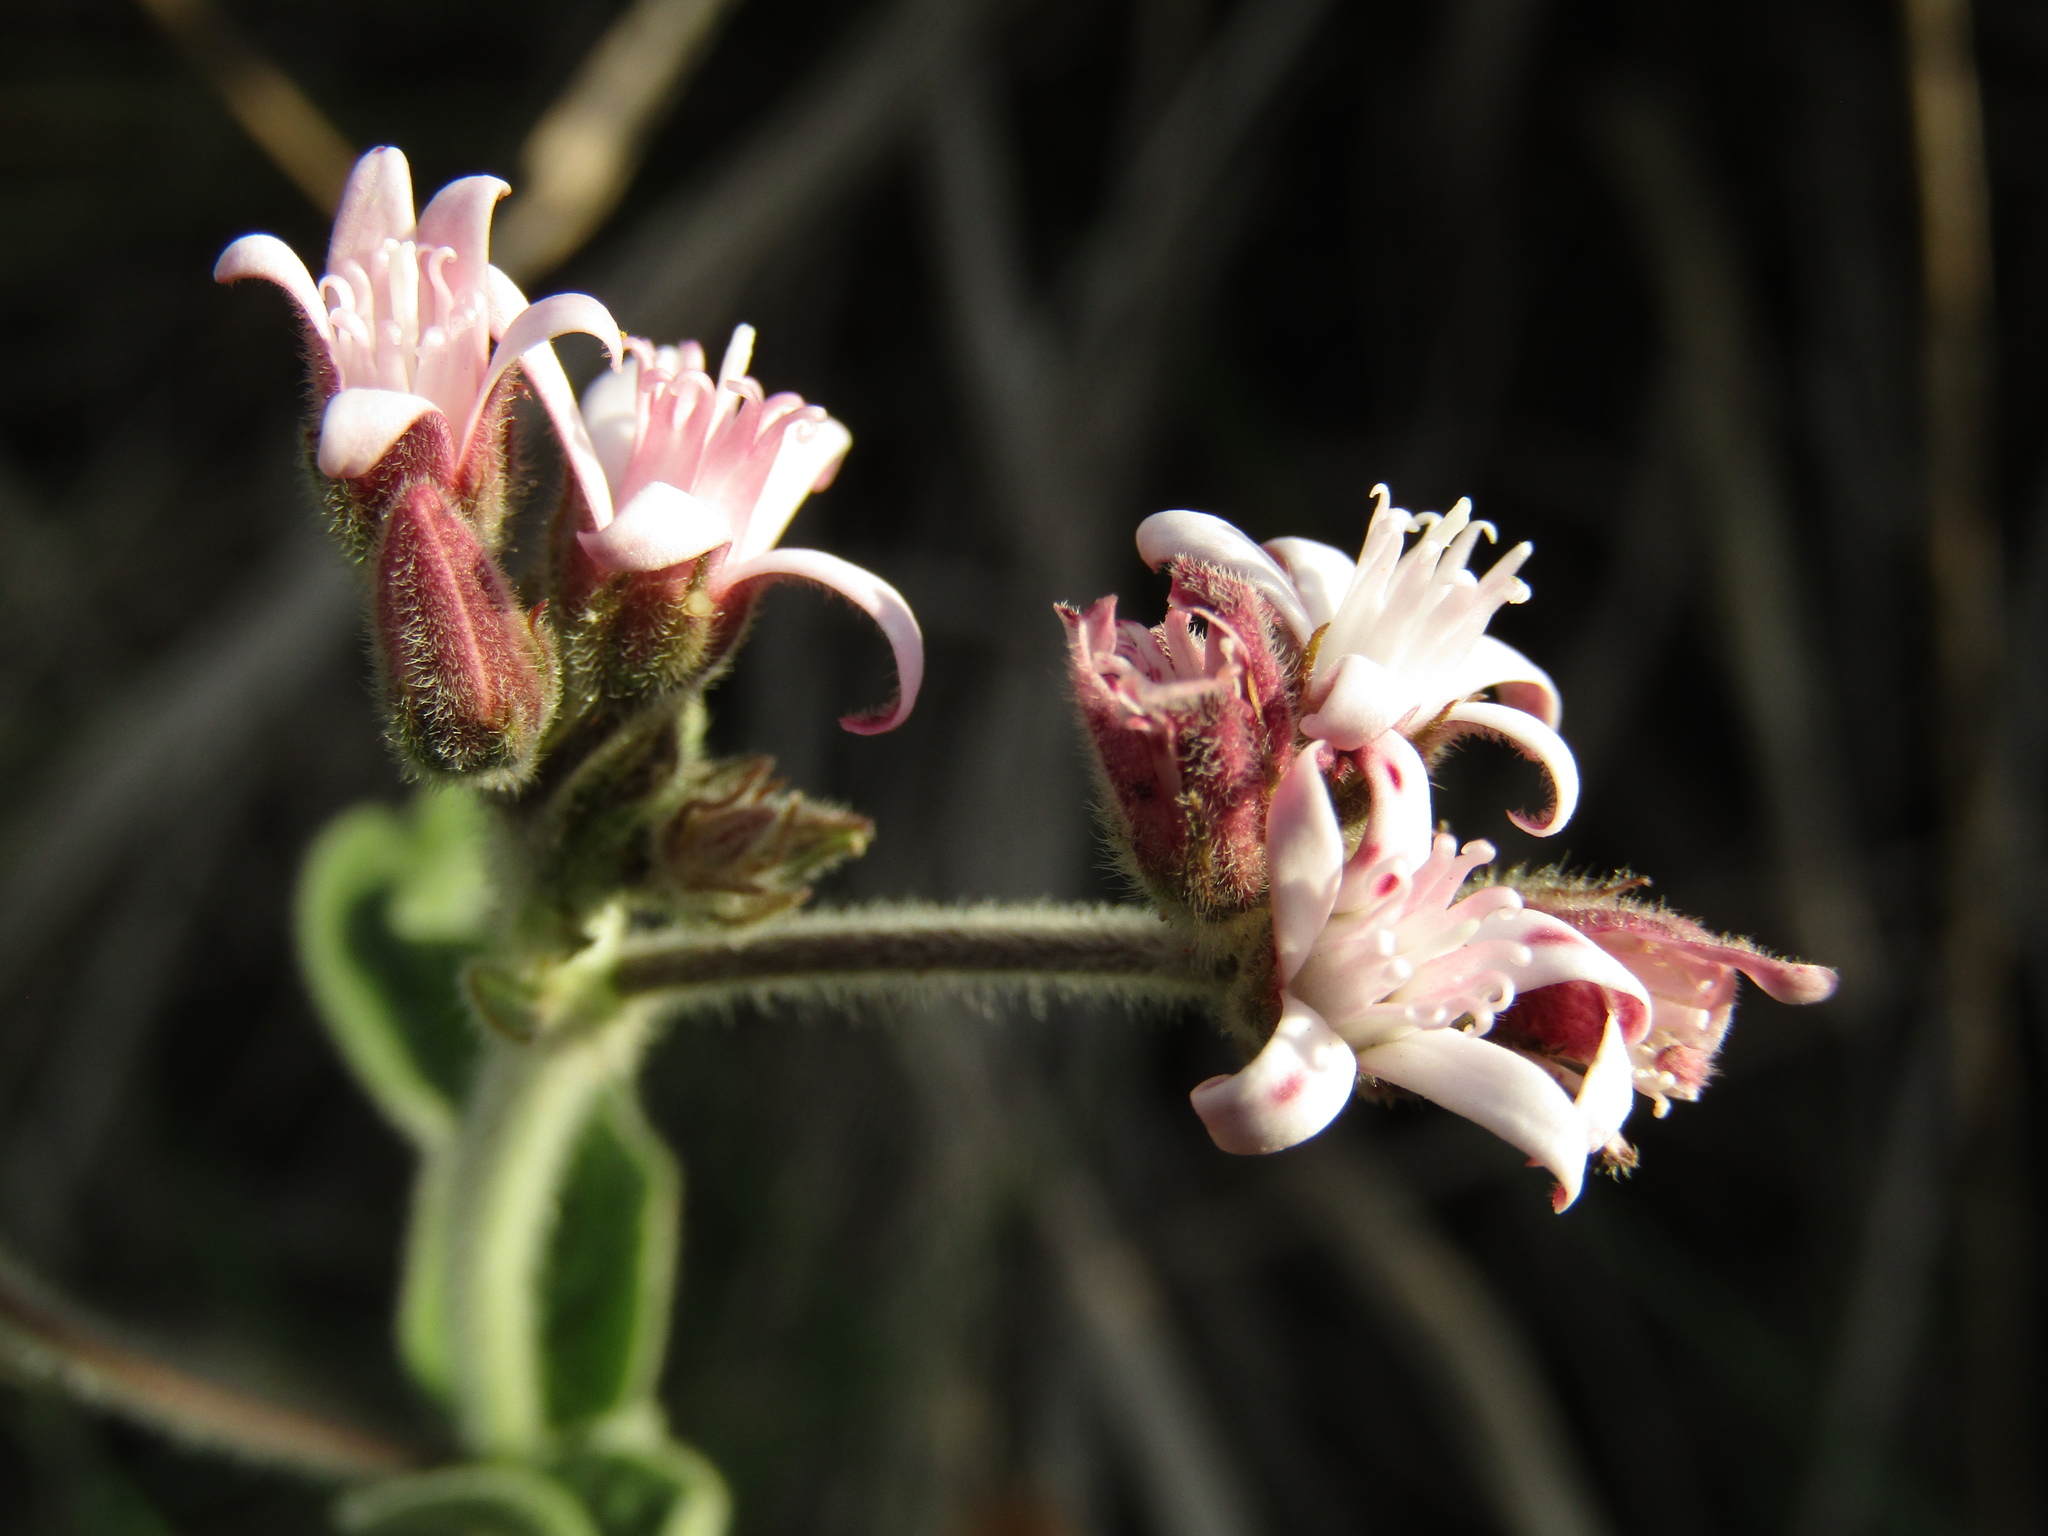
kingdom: Plantae
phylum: Tracheophyta
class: Magnoliopsida
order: Gentianales
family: Apocynaceae
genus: Oxypetalum
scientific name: Oxypetalum solanoides
